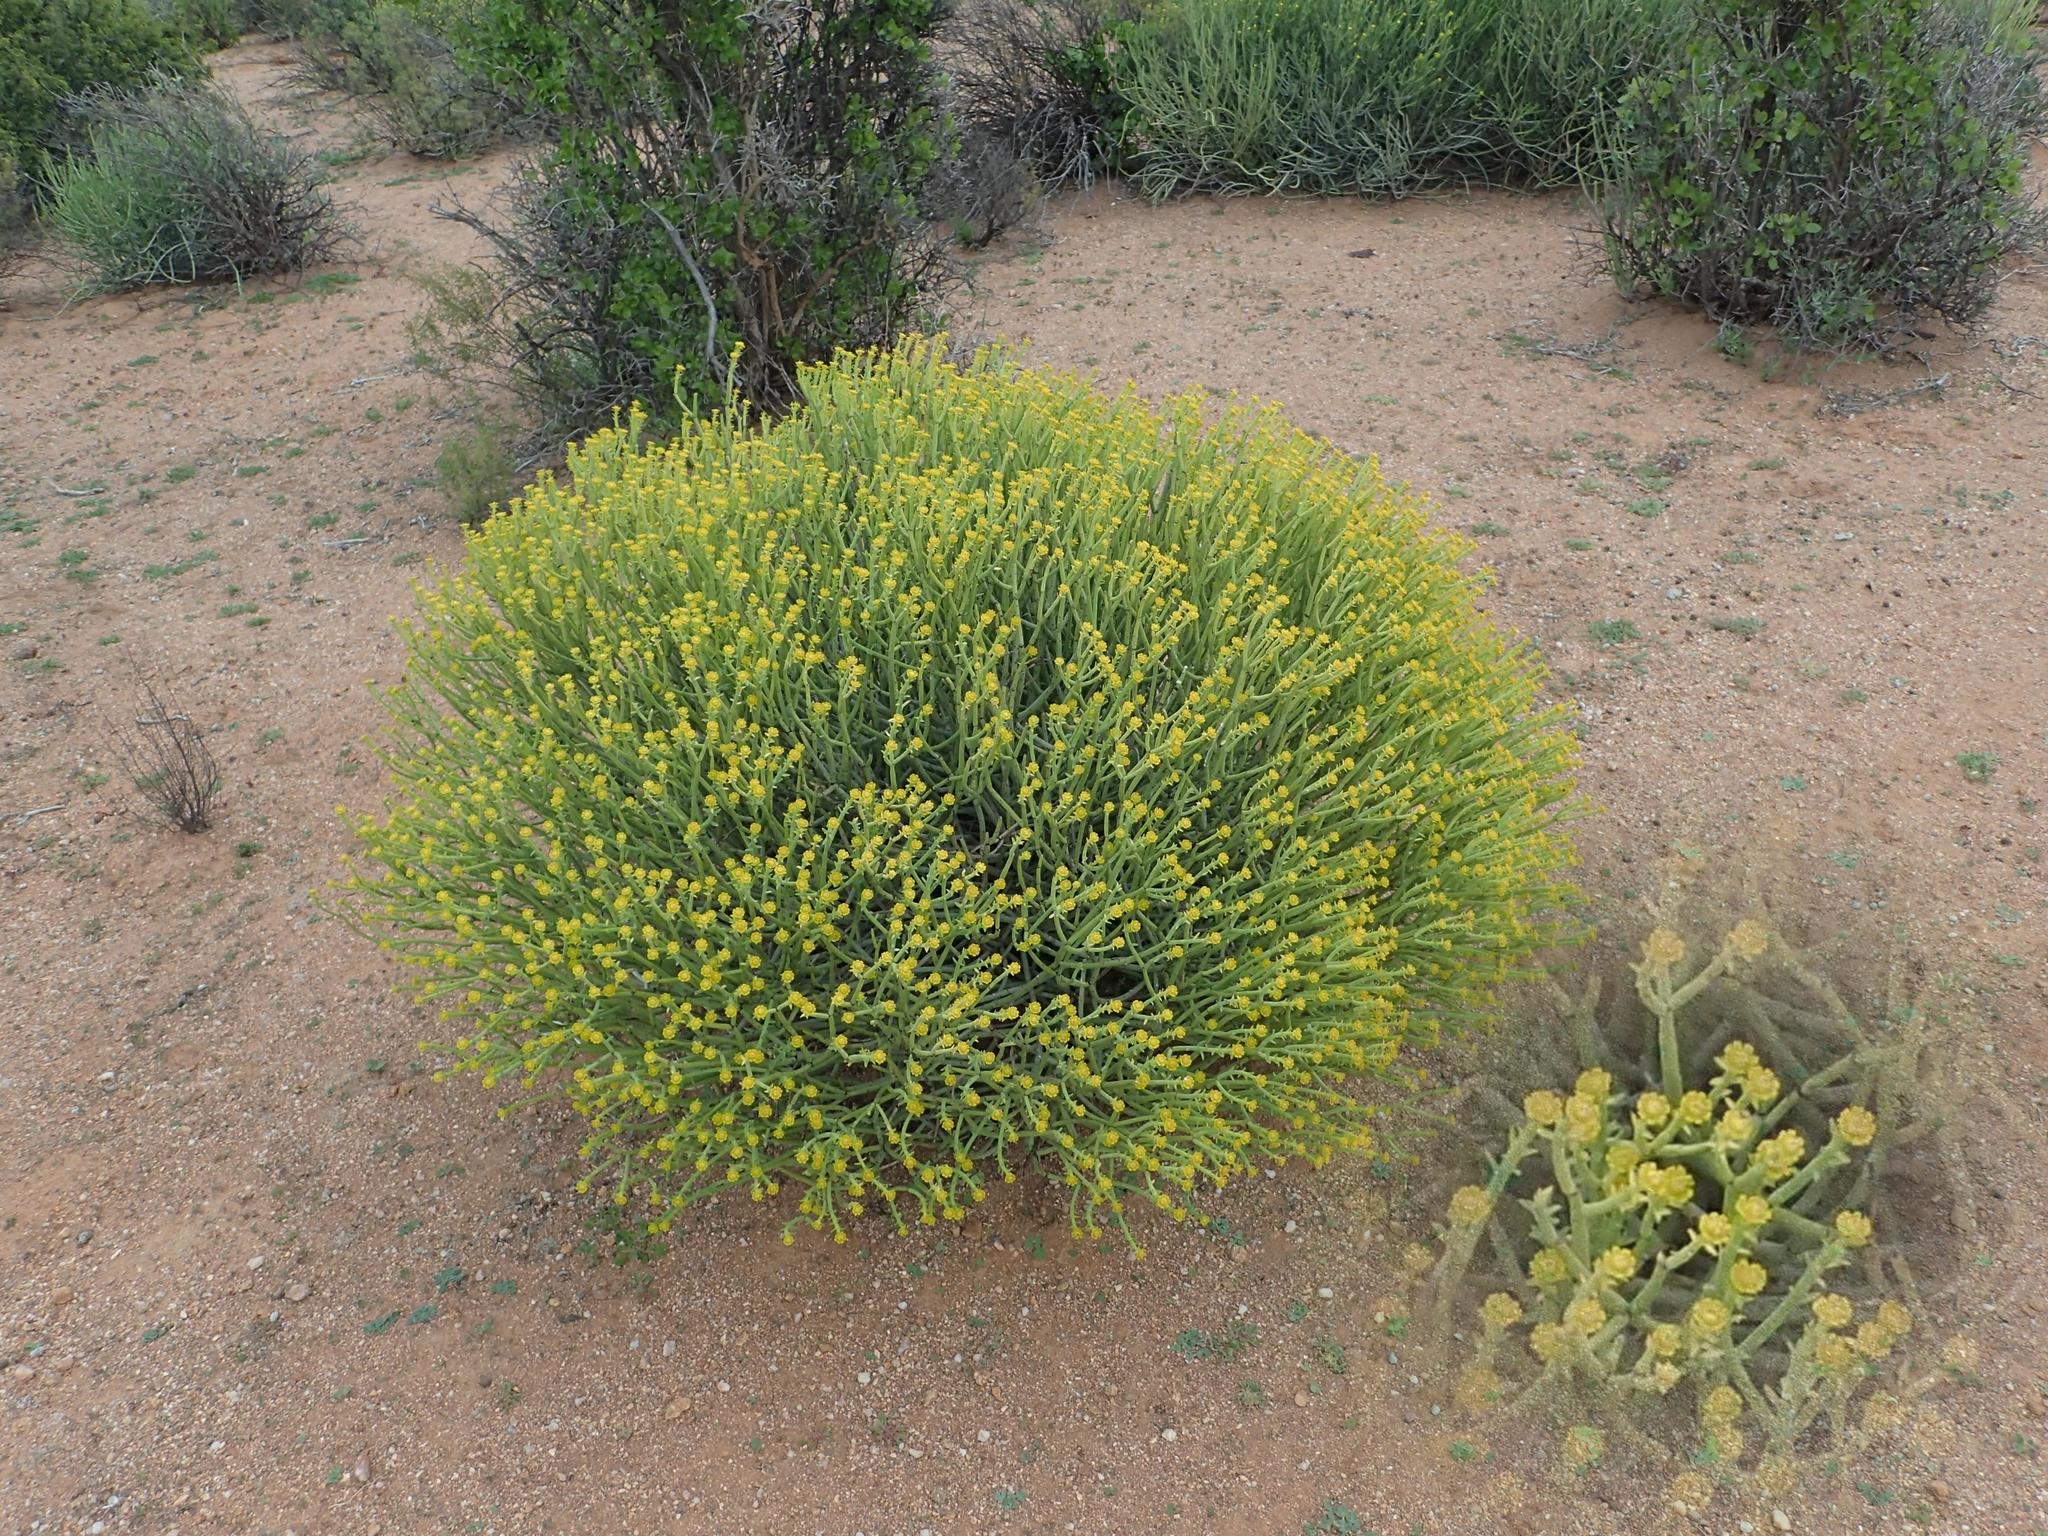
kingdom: Plantae
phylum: Tracheophyta
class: Magnoliopsida
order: Malpighiales
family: Euphorbiaceae
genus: Euphorbia
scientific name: Euphorbia mauritanica
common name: Jackal's-food
